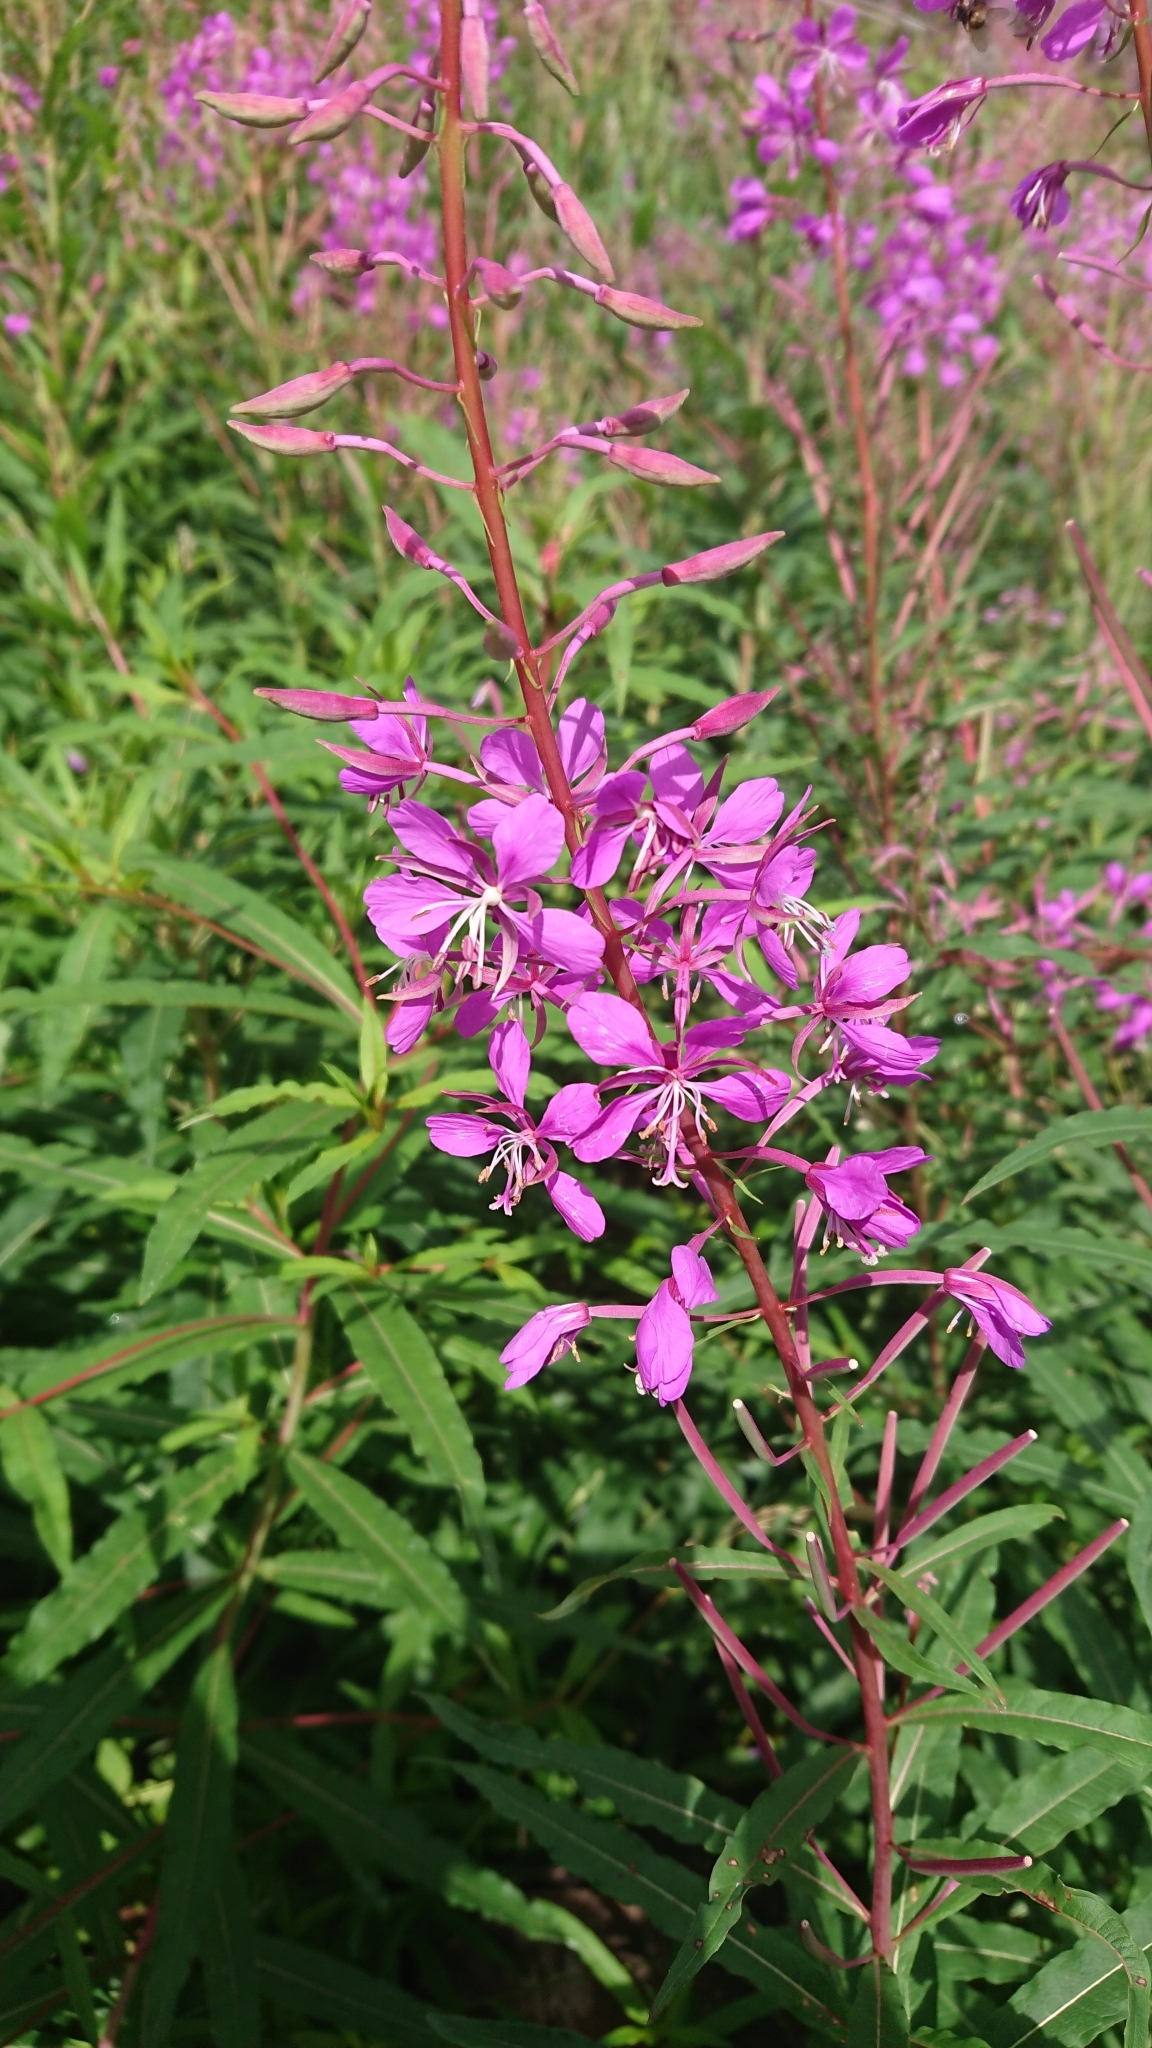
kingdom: Plantae
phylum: Tracheophyta
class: Magnoliopsida
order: Myrtales
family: Onagraceae
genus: Chamaenerion
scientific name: Chamaenerion angustifolium
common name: Fireweed
